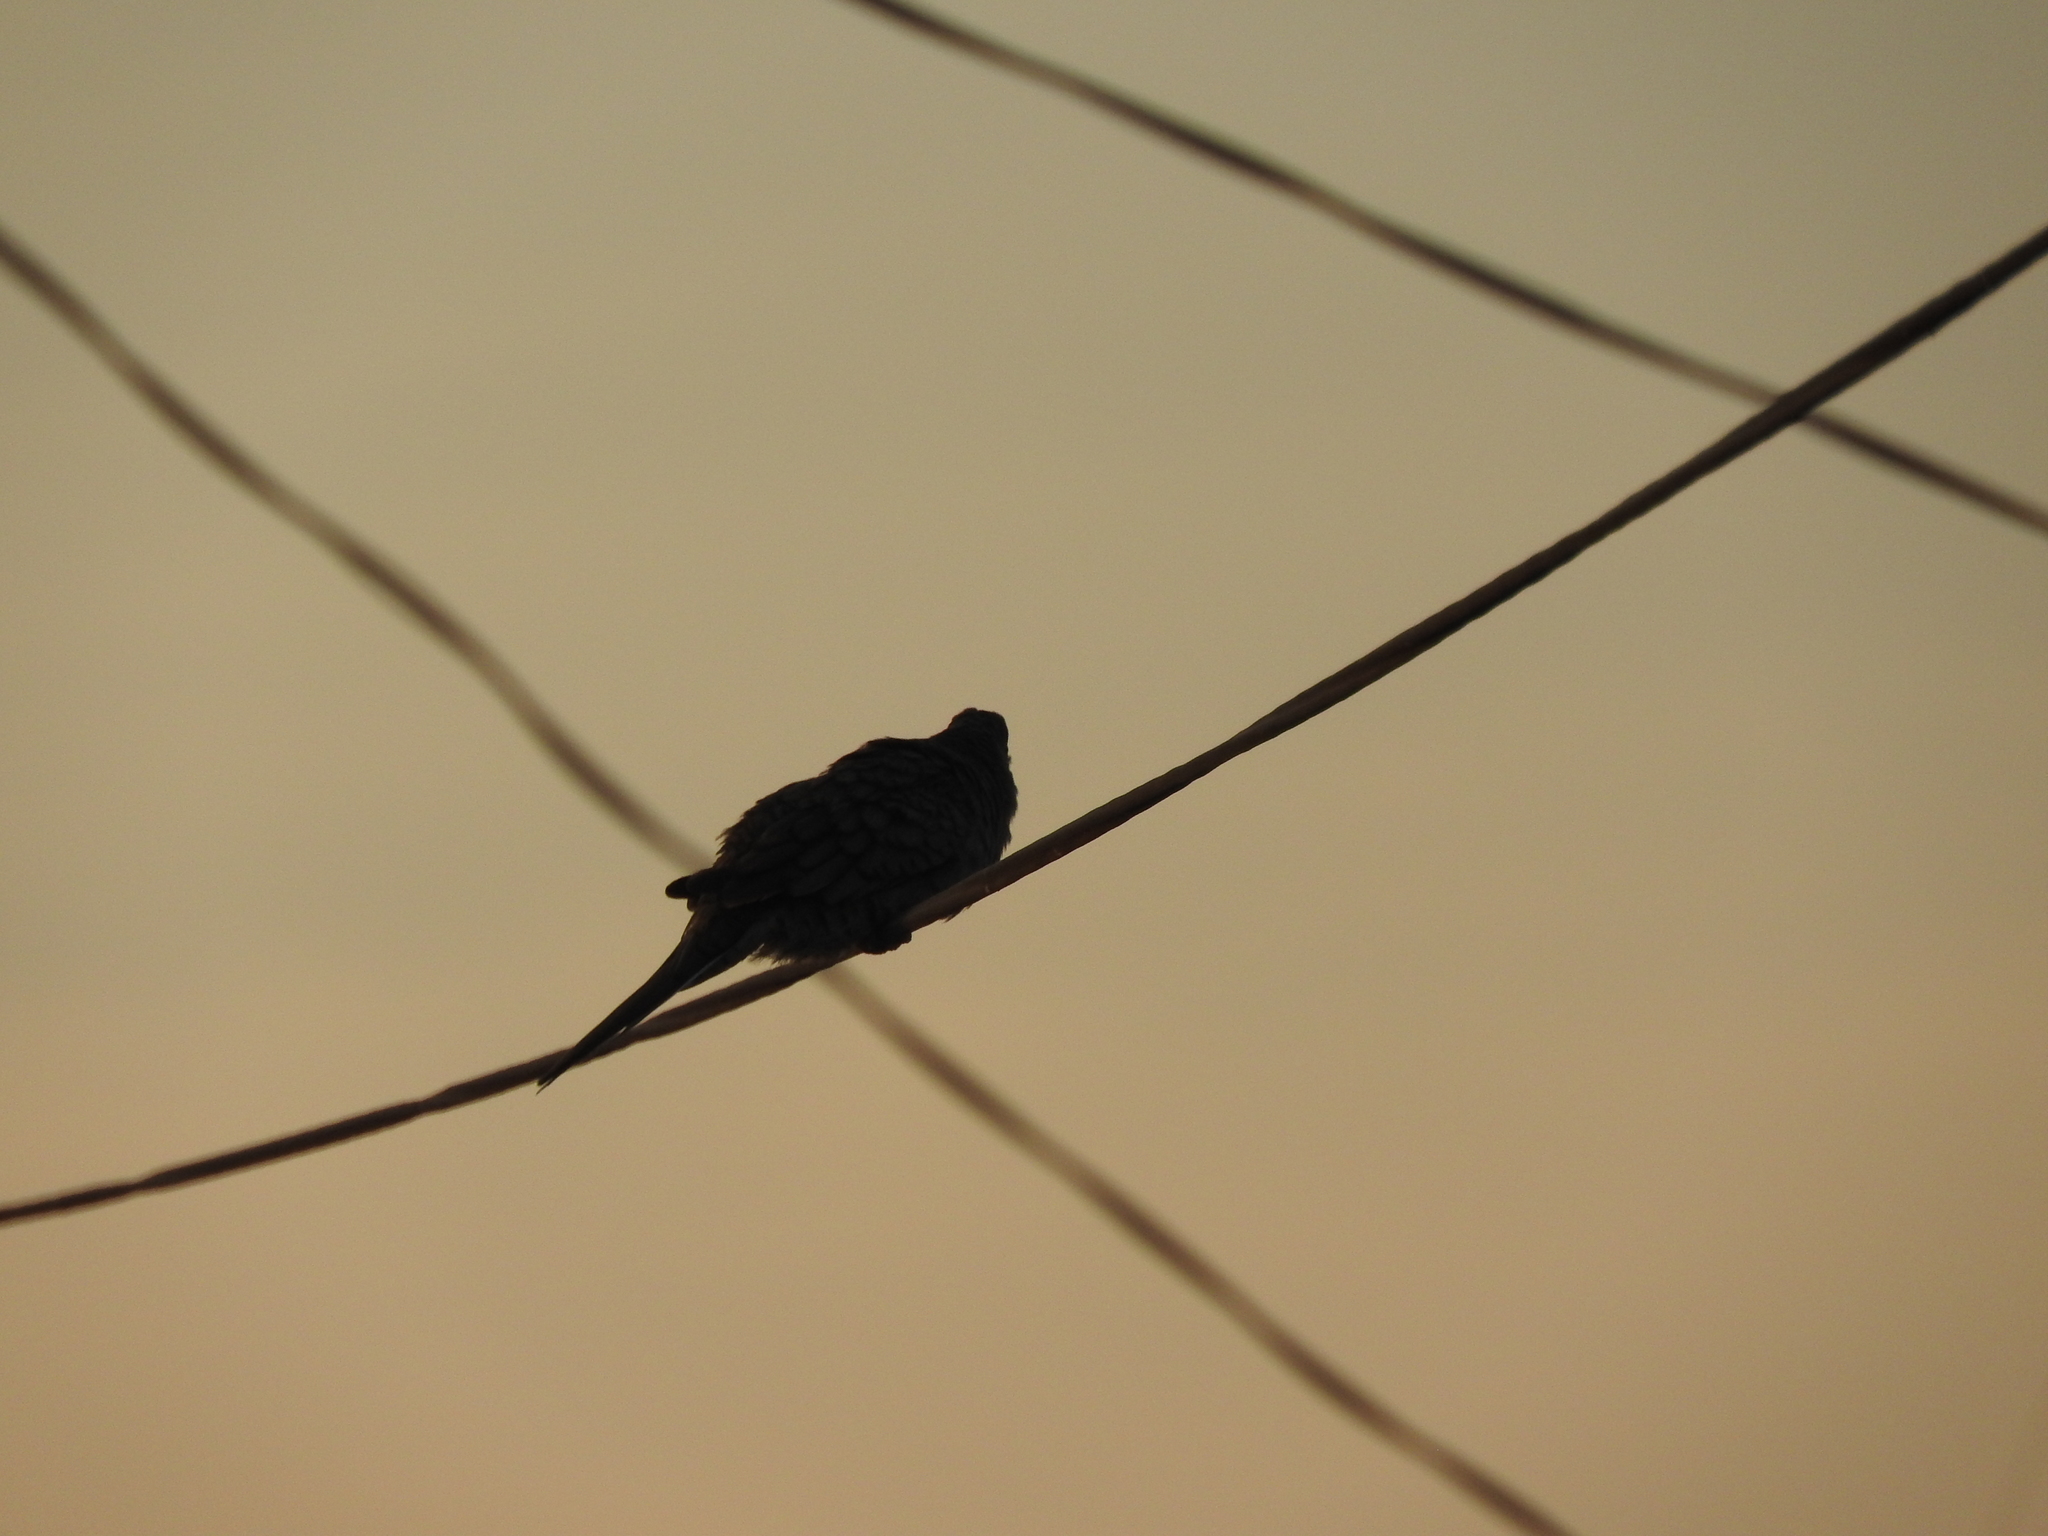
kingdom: Animalia
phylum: Chordata
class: Aves
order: Columbiformes
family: Columbidae
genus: Columbina
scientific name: Columbina inca
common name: Inca dove
